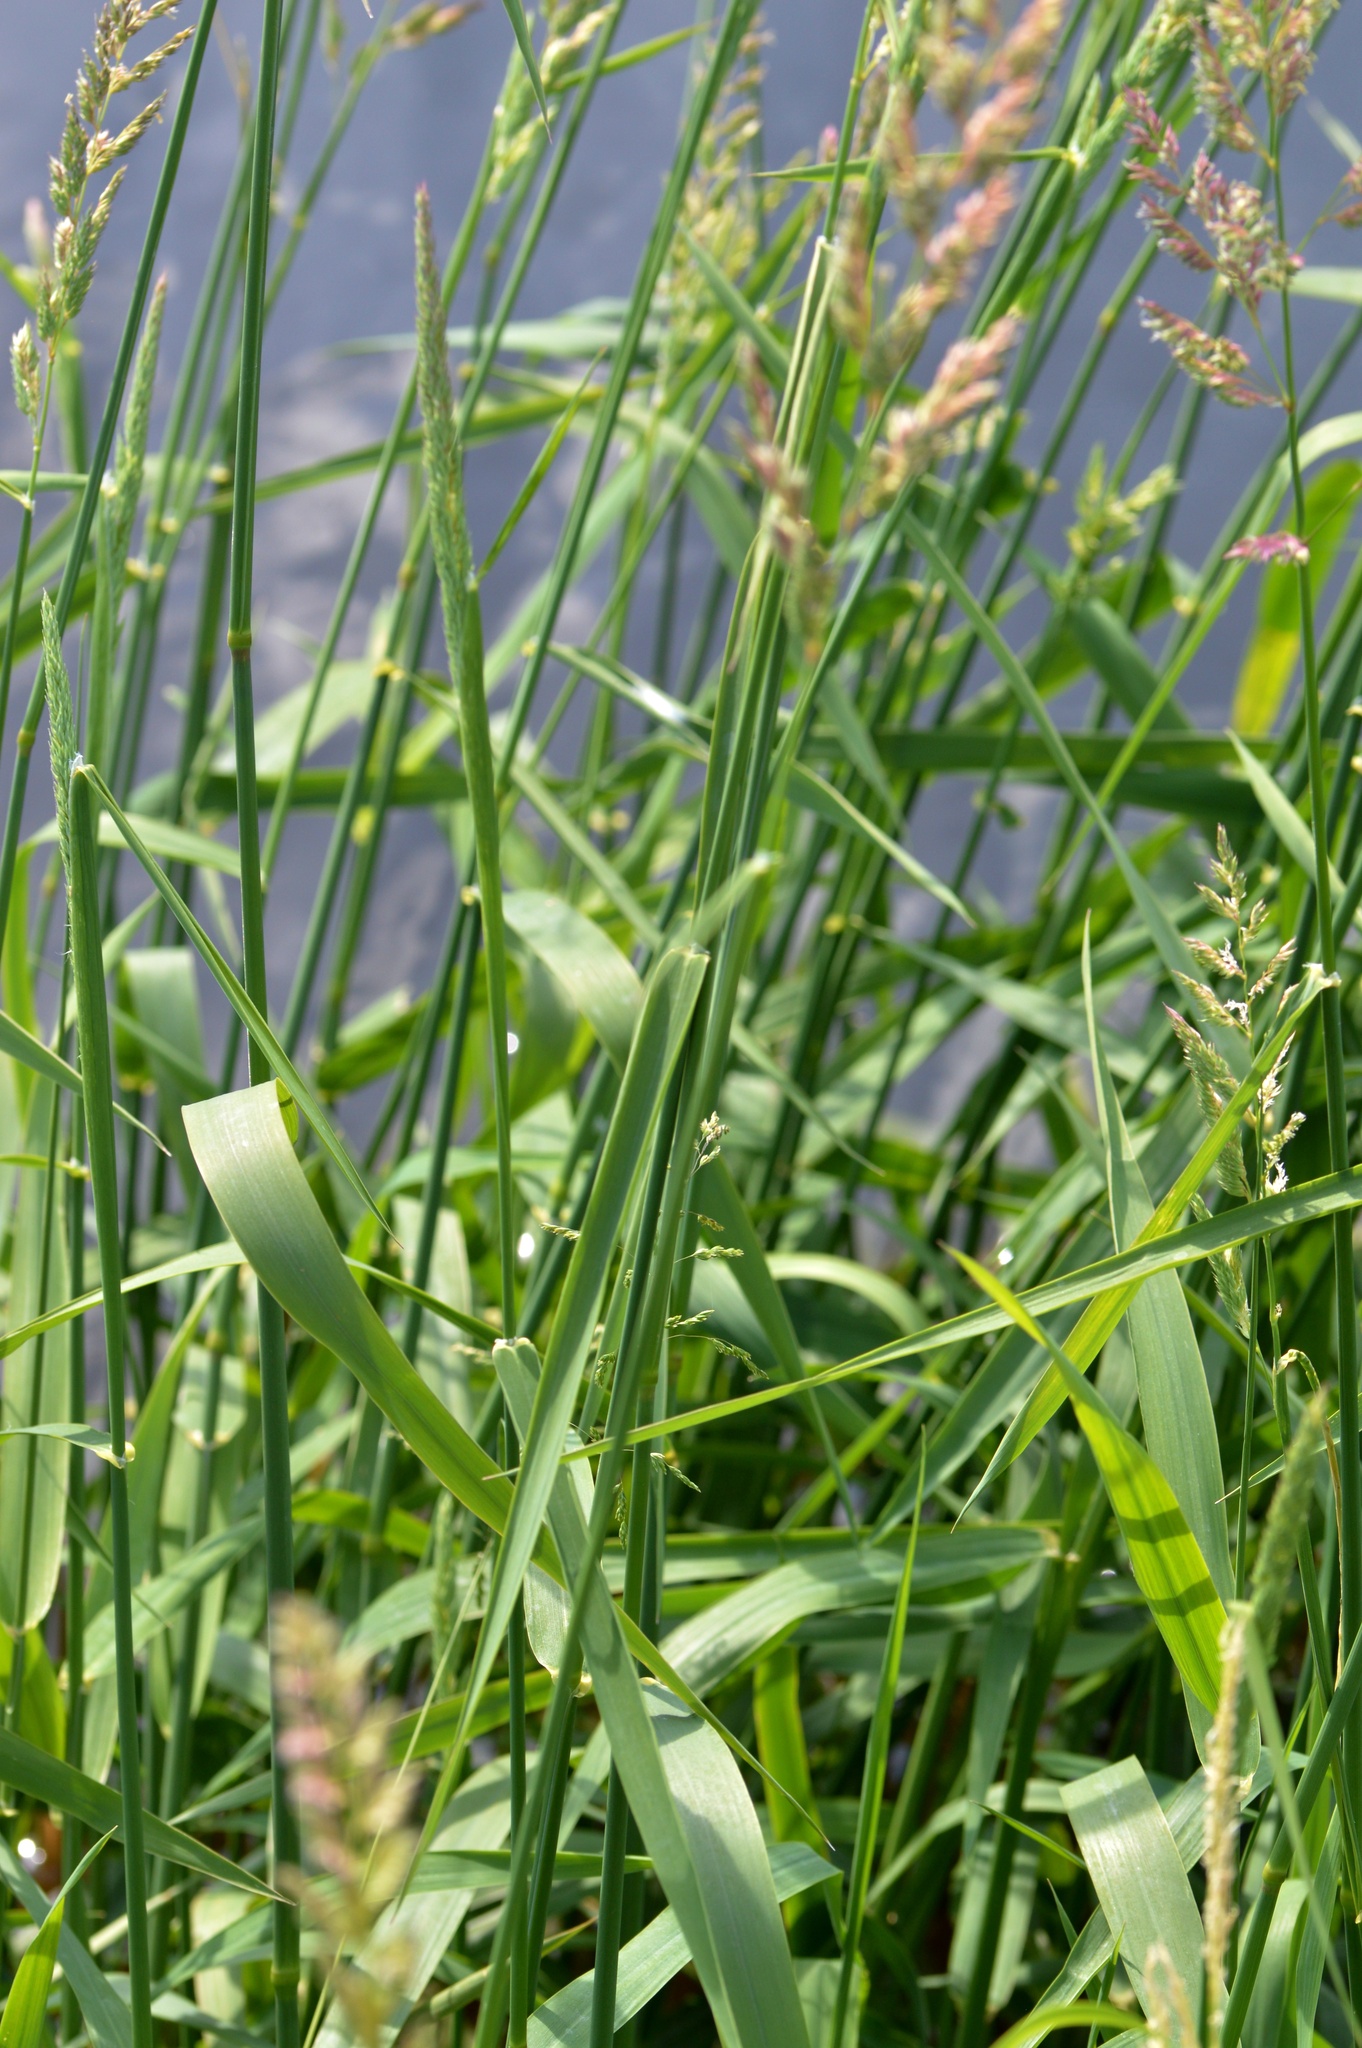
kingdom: Plantae
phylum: Tracheophyta
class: Liliopsida
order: Poales
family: Poaceae
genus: Phalaris
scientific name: Phalaris arundinacea
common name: Reed canary-grass
